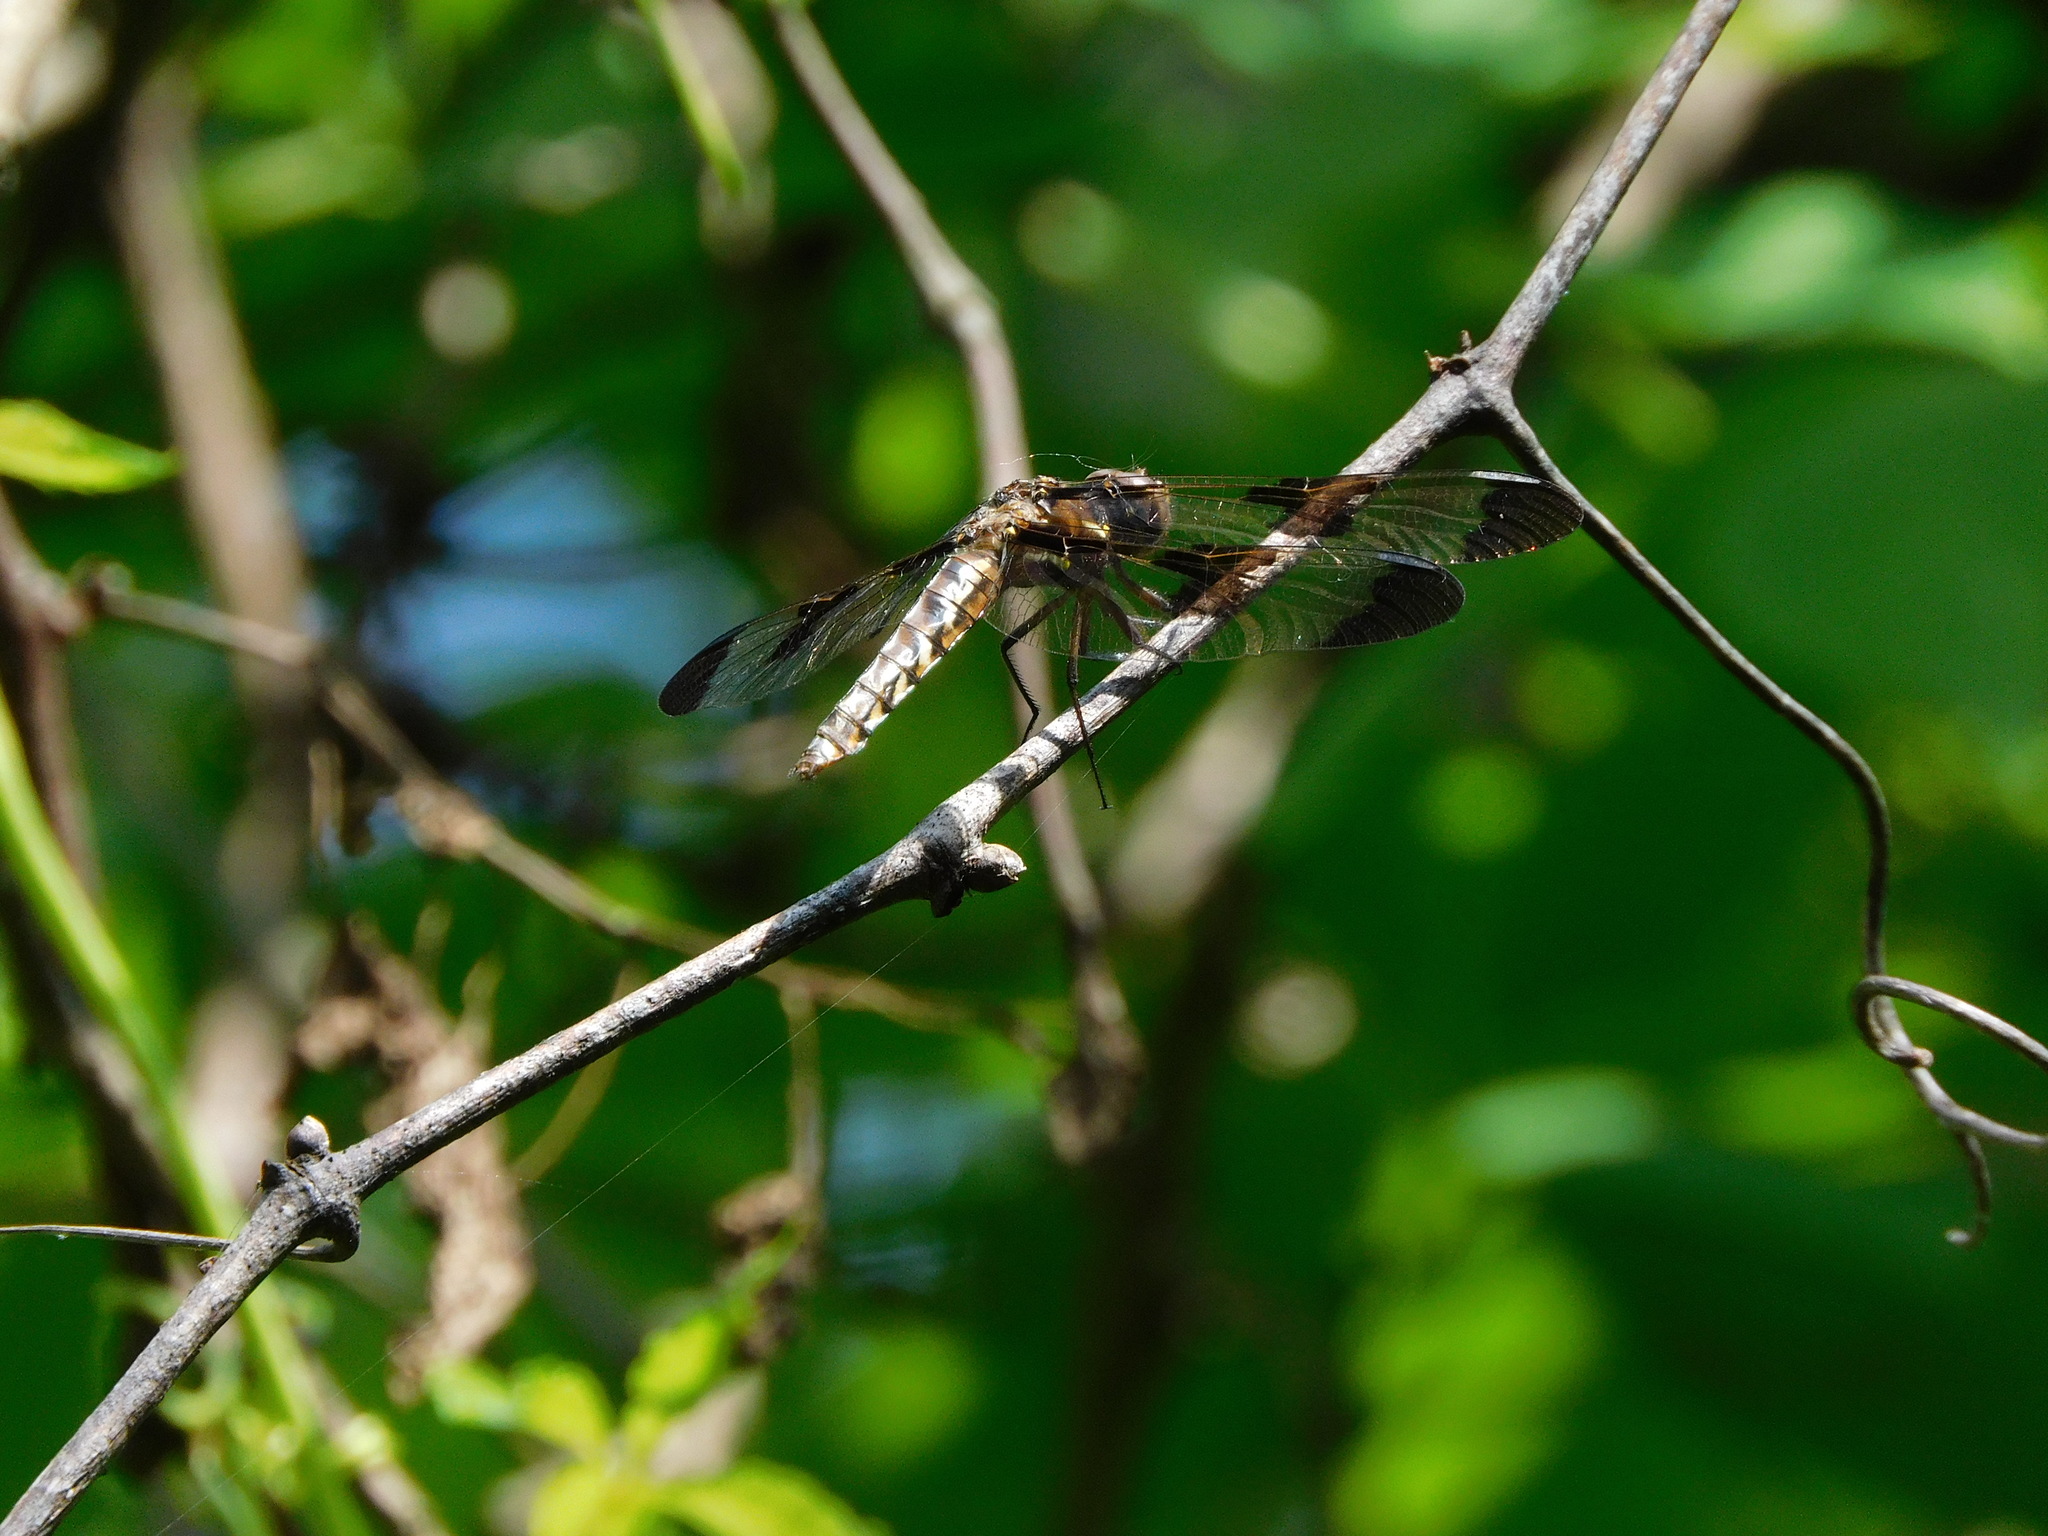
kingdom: Animalia
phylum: Arthropoda
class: Insecta
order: Odonata
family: Libellulidae
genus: Plathemis
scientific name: Plathemis lydia
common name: Common whitetail
